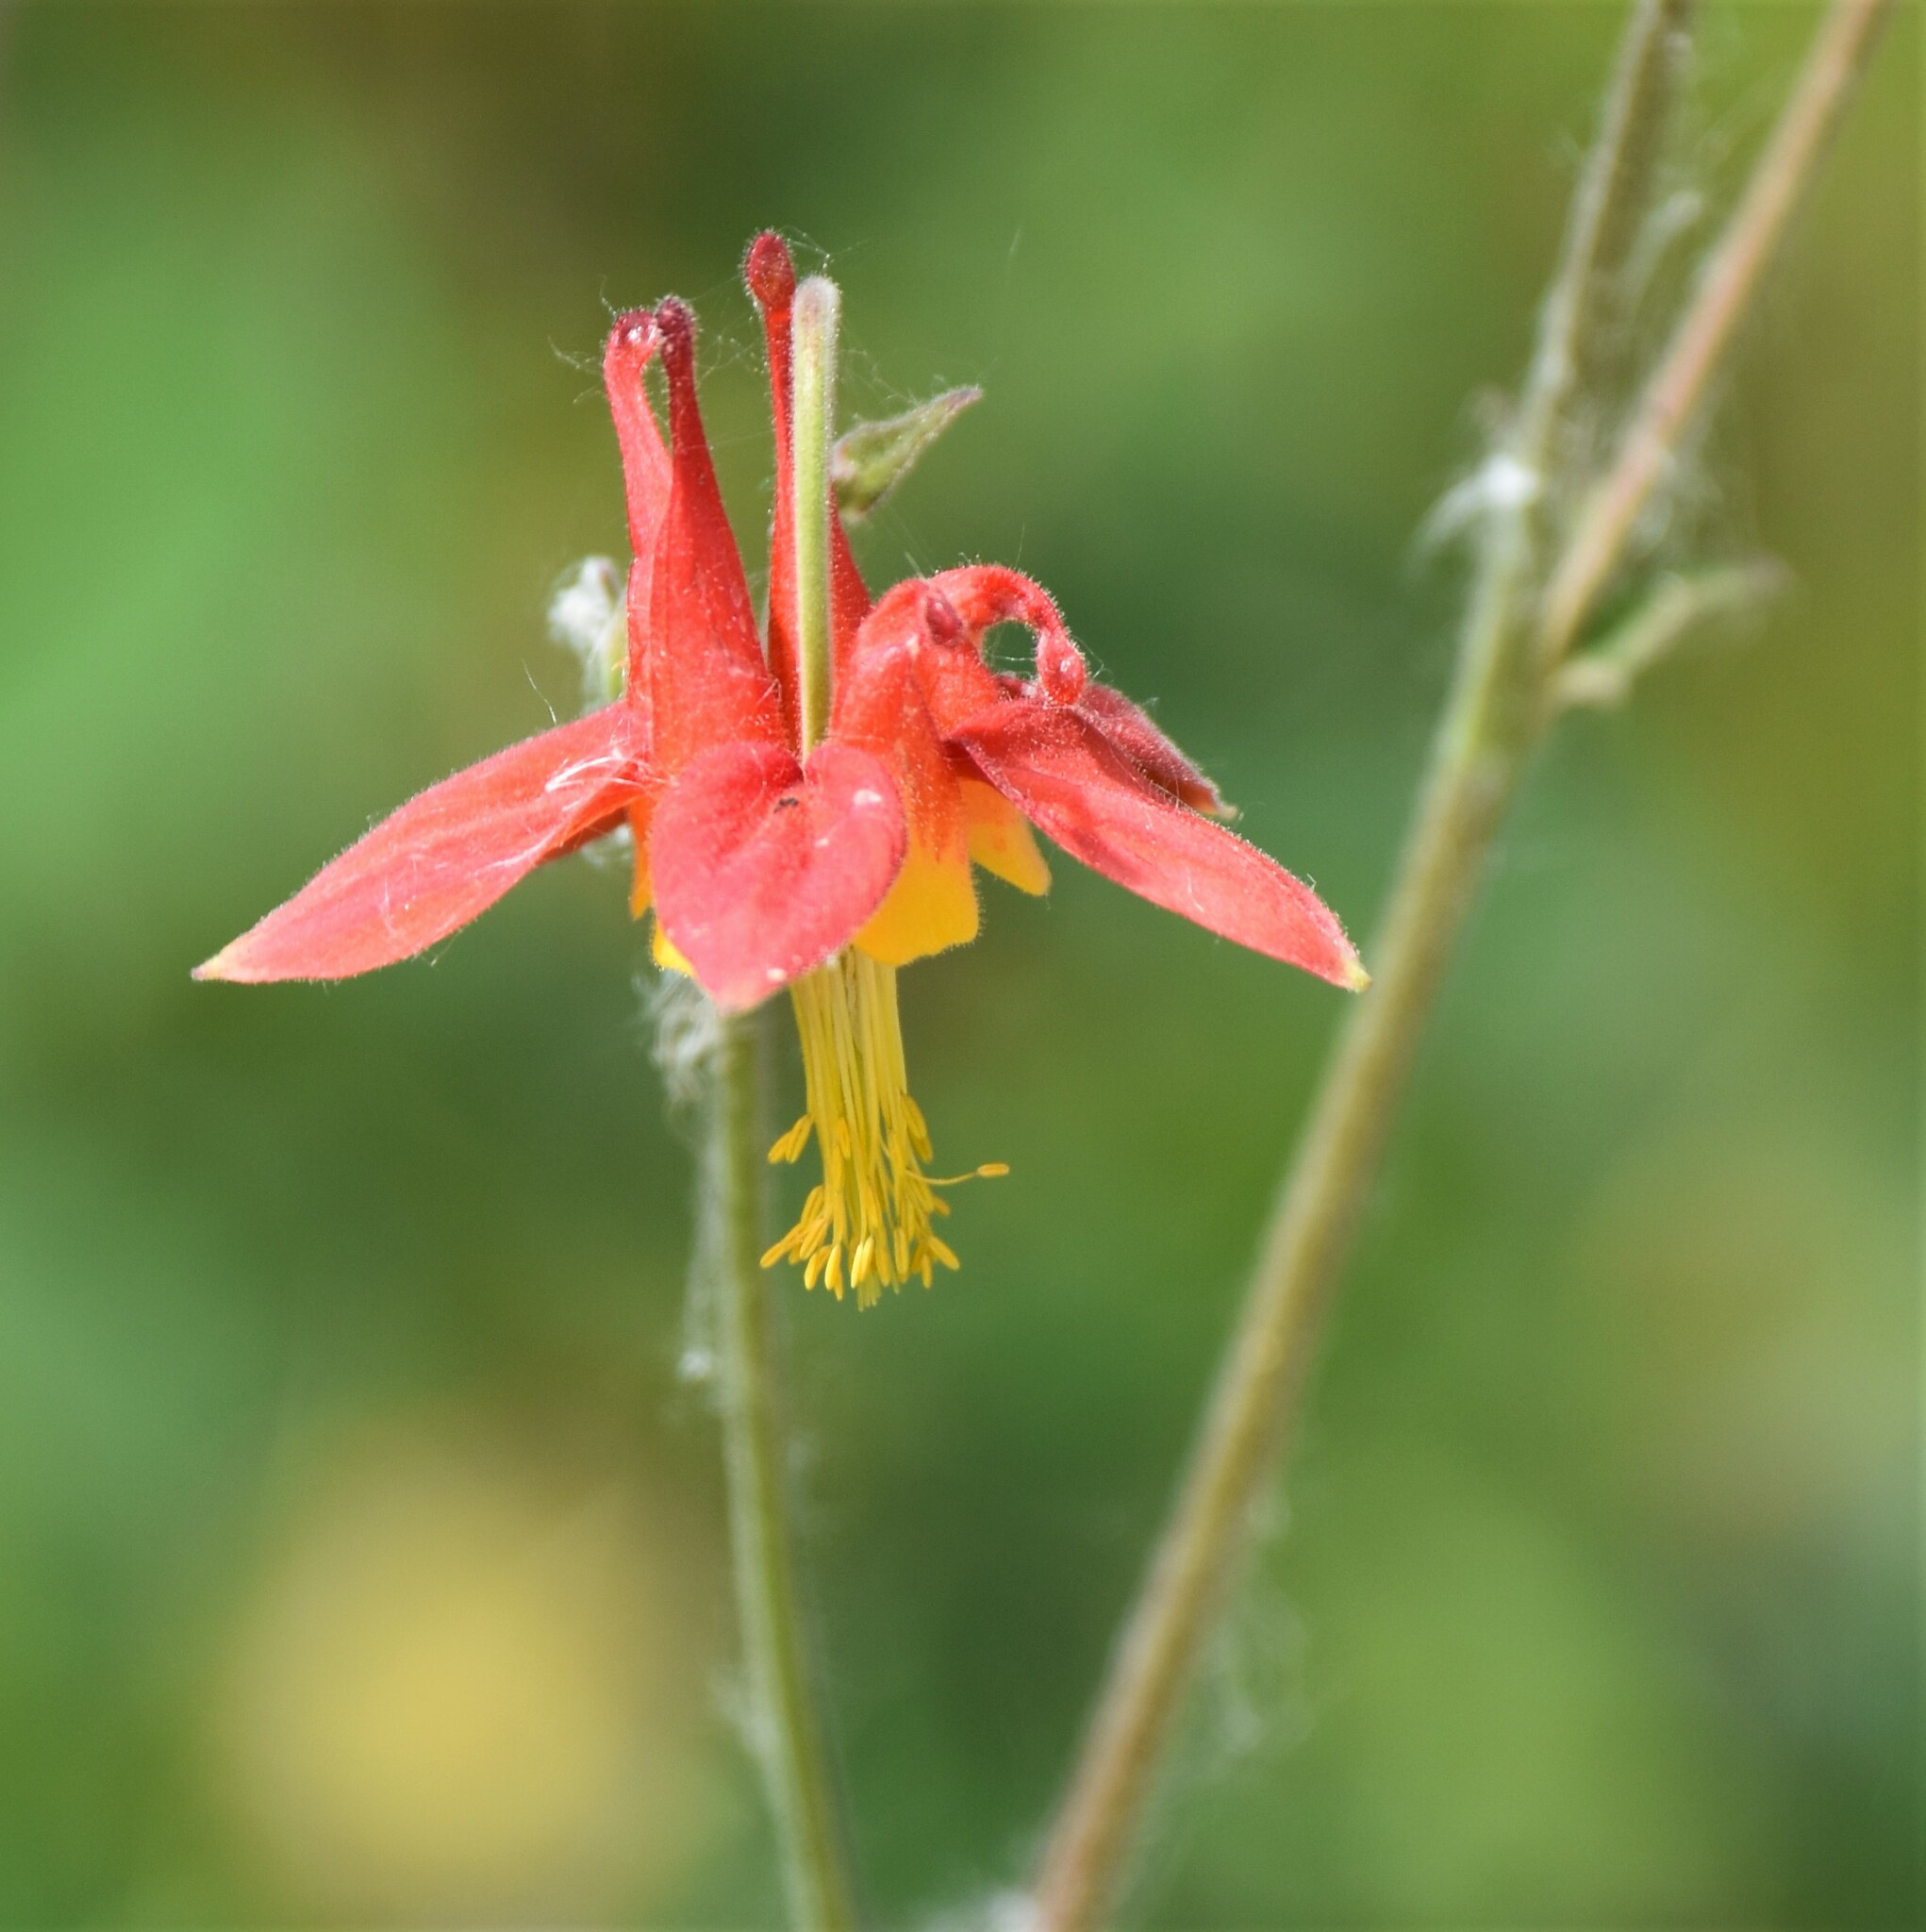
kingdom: Plantae
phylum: Tracheophyta
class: Magnoliopsida
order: Ranunculales
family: Ranunculaceae
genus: Aquilegia
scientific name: Aquilegia formosa
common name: Sitka columbine
